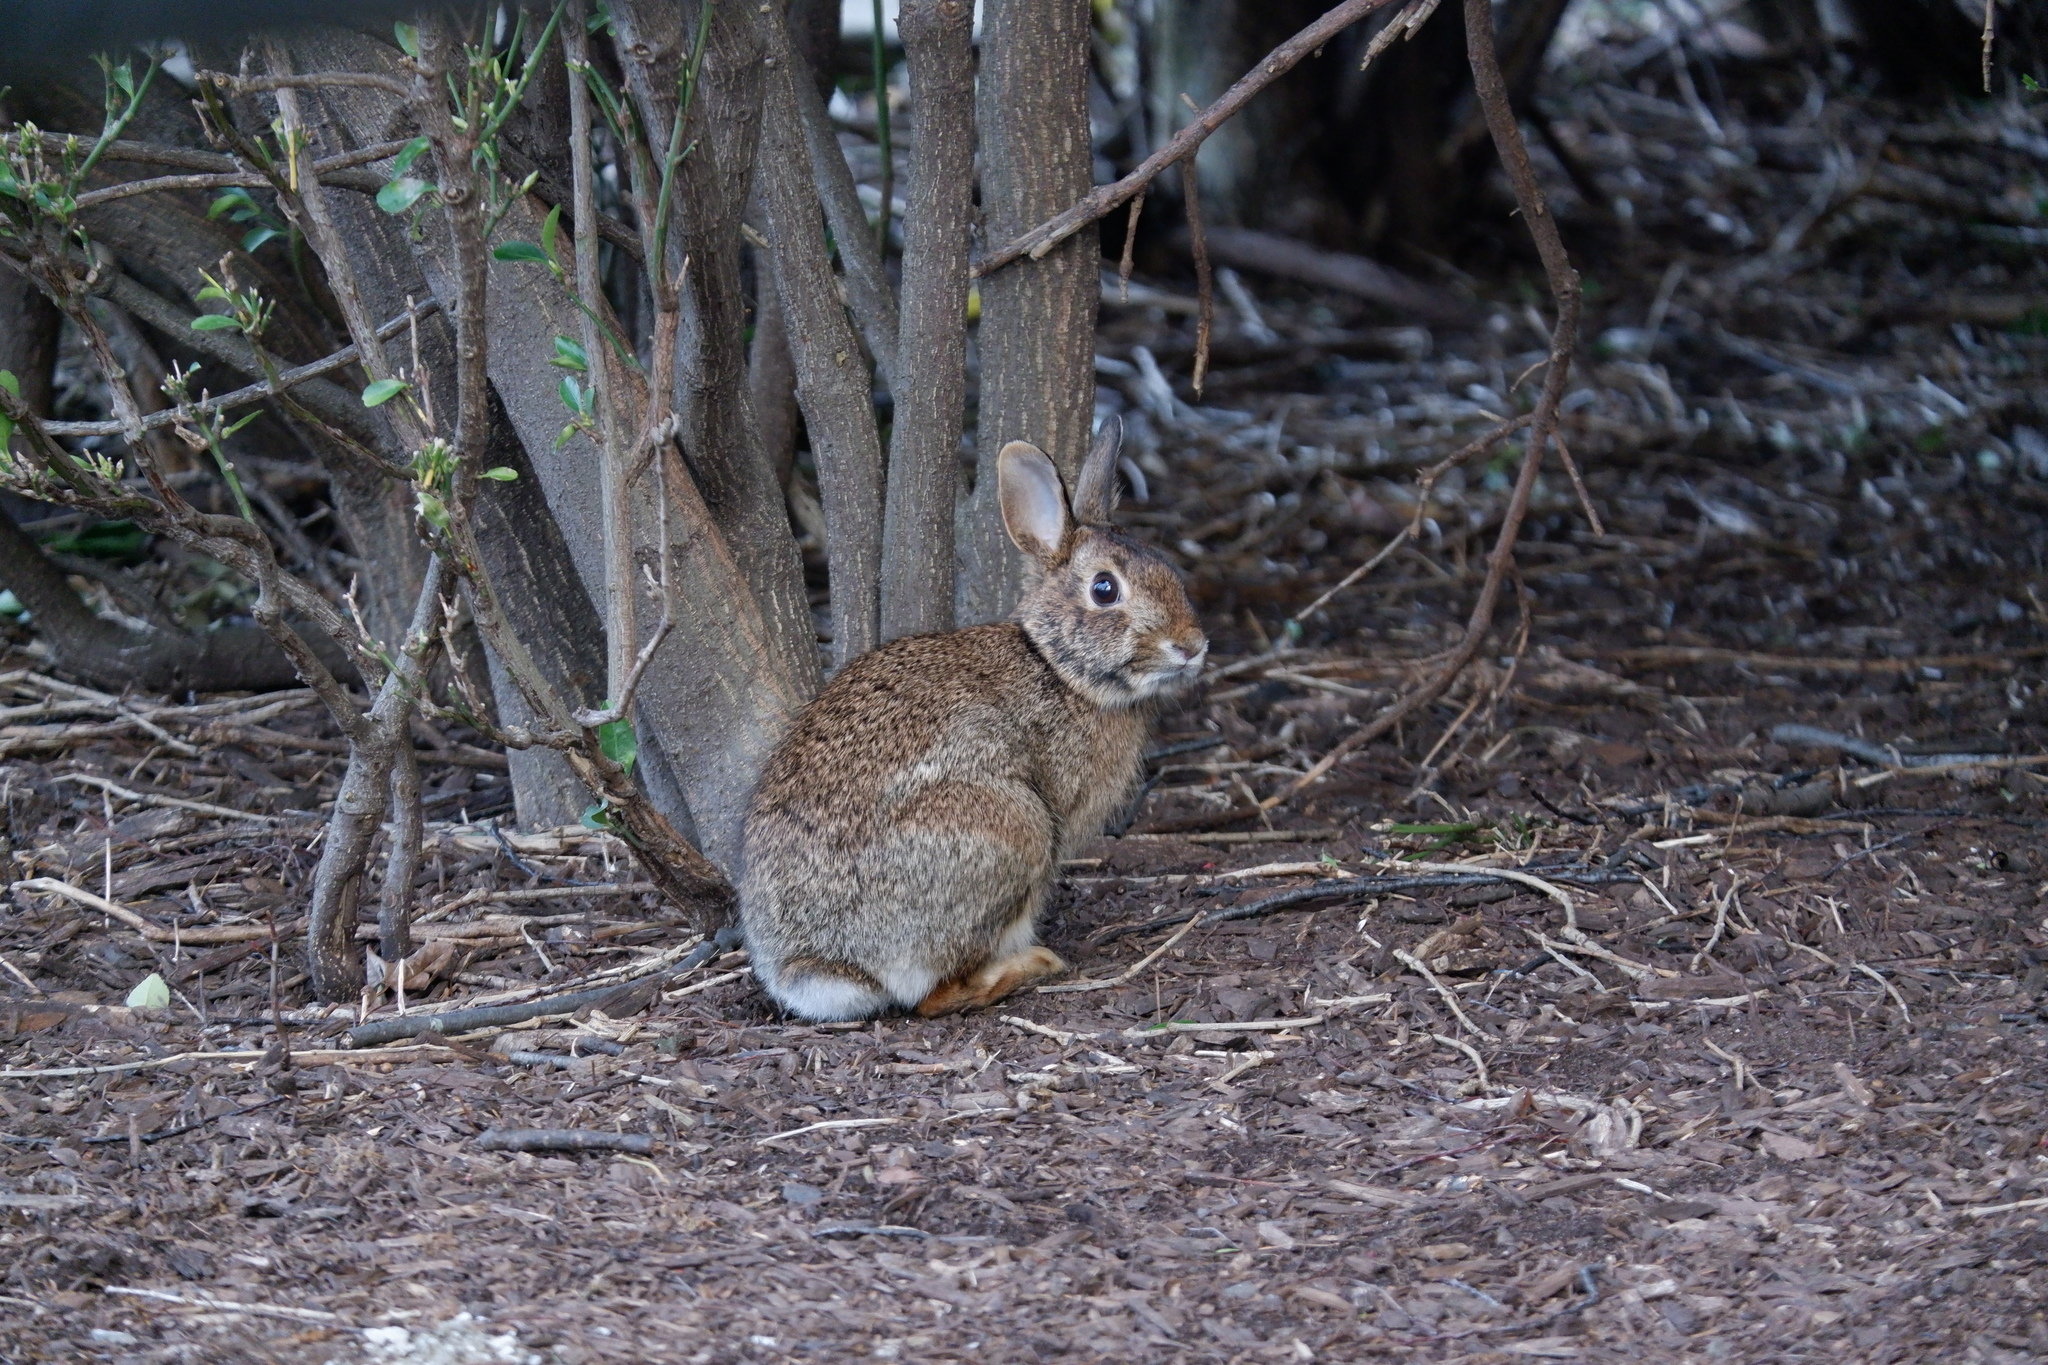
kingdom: Animalia
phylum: Chordata
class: Mammalia
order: Lagomorpha
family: Leporidae
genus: Sylvilagus
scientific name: Sylvilagus floridanus
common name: Eastern cottontail
